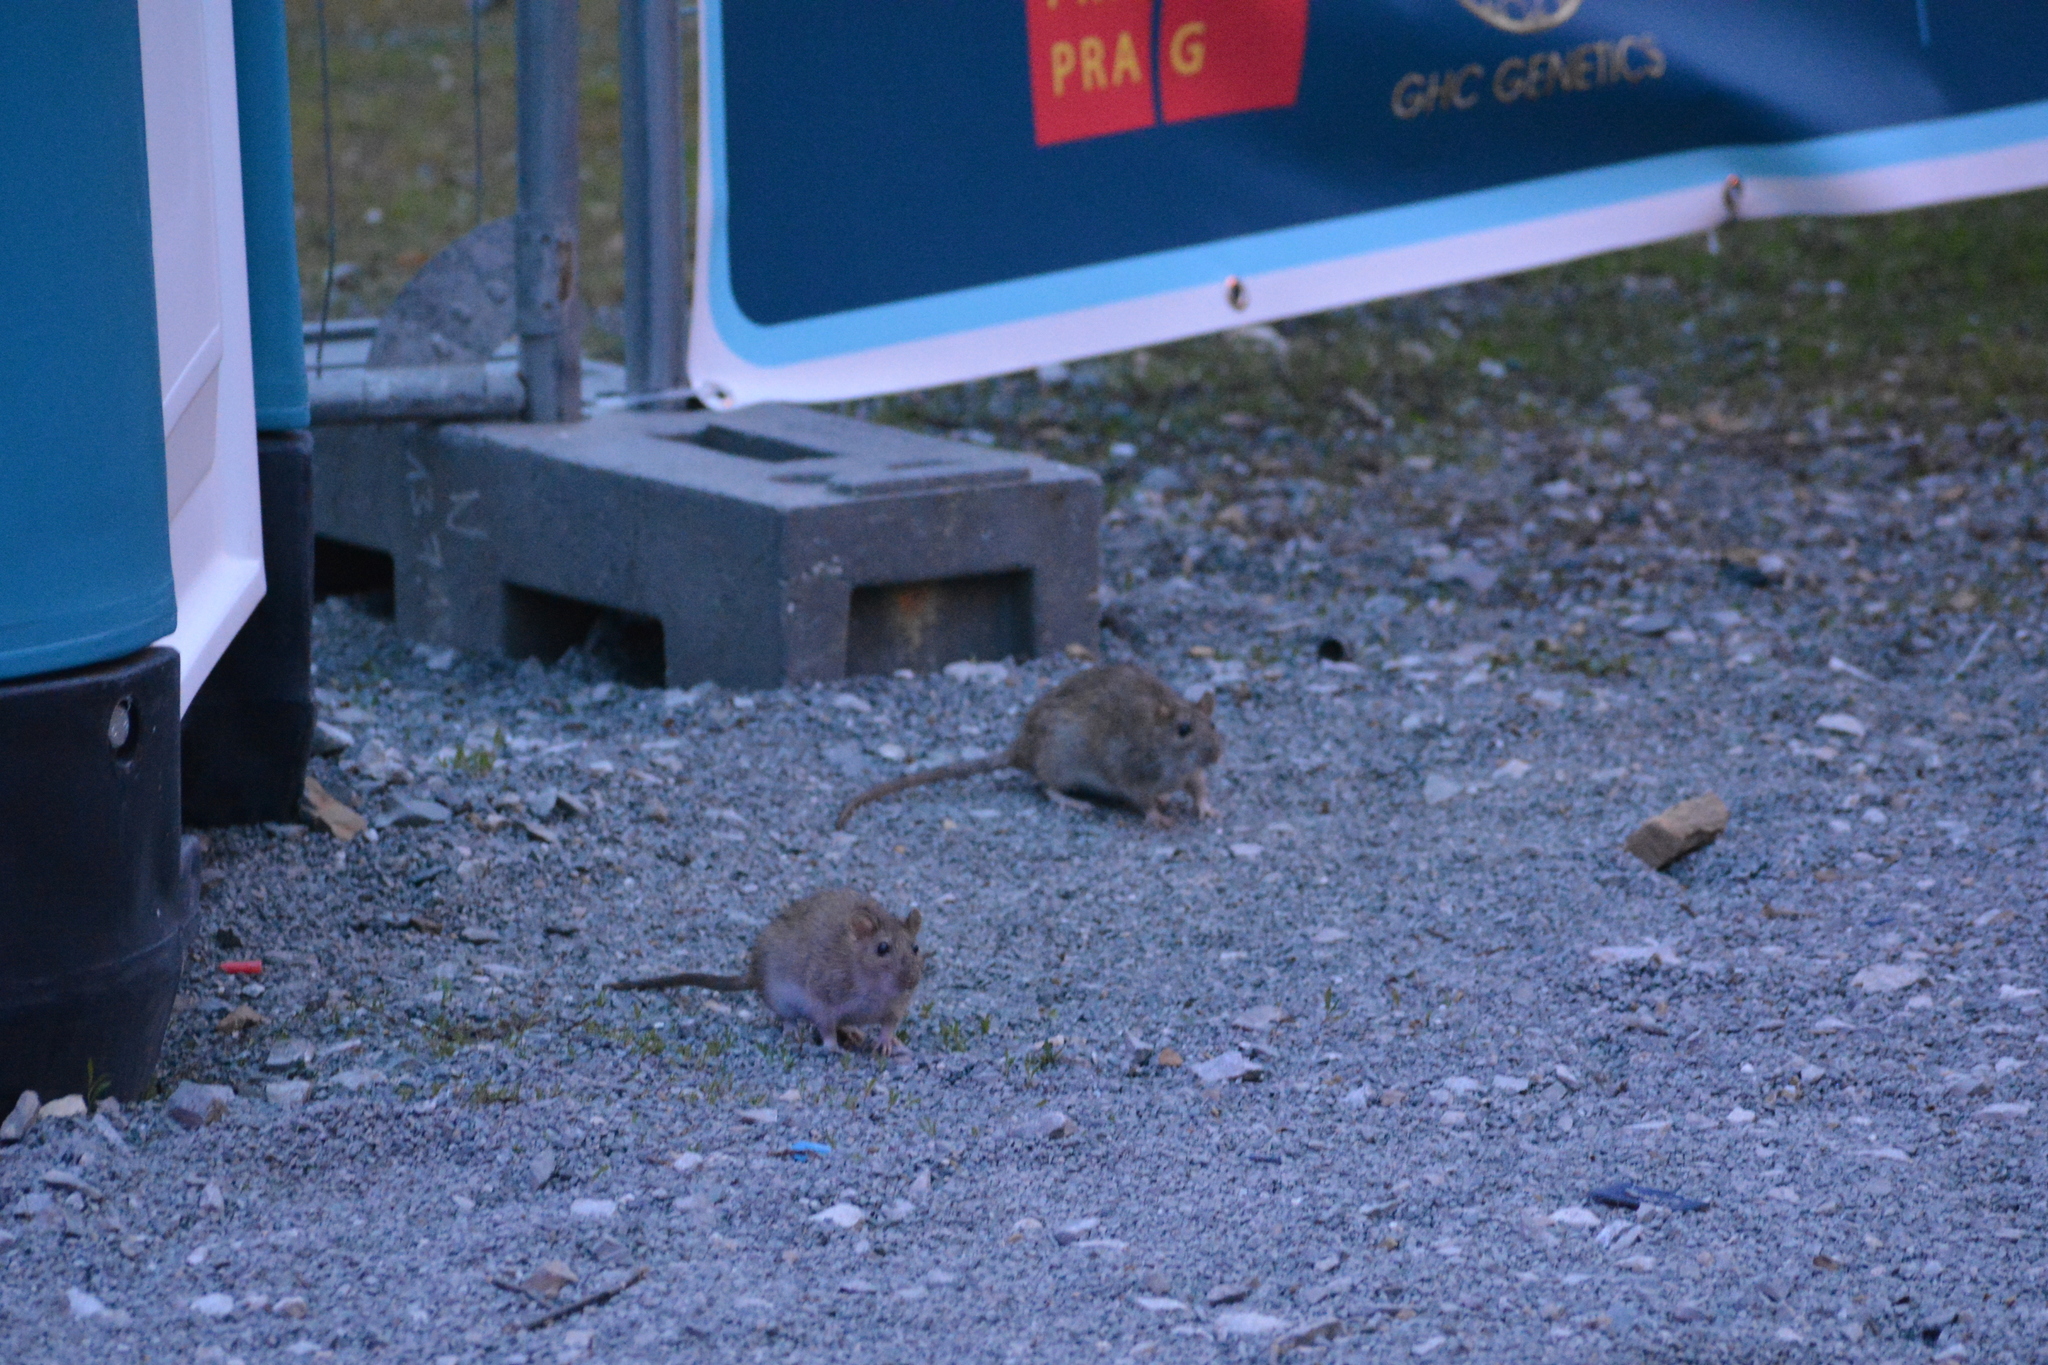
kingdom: Animalia
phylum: Chordata
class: Mammalia
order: Rodentia
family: Muridae
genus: Rattus
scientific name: Rattus norvegicus
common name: Brown rat
